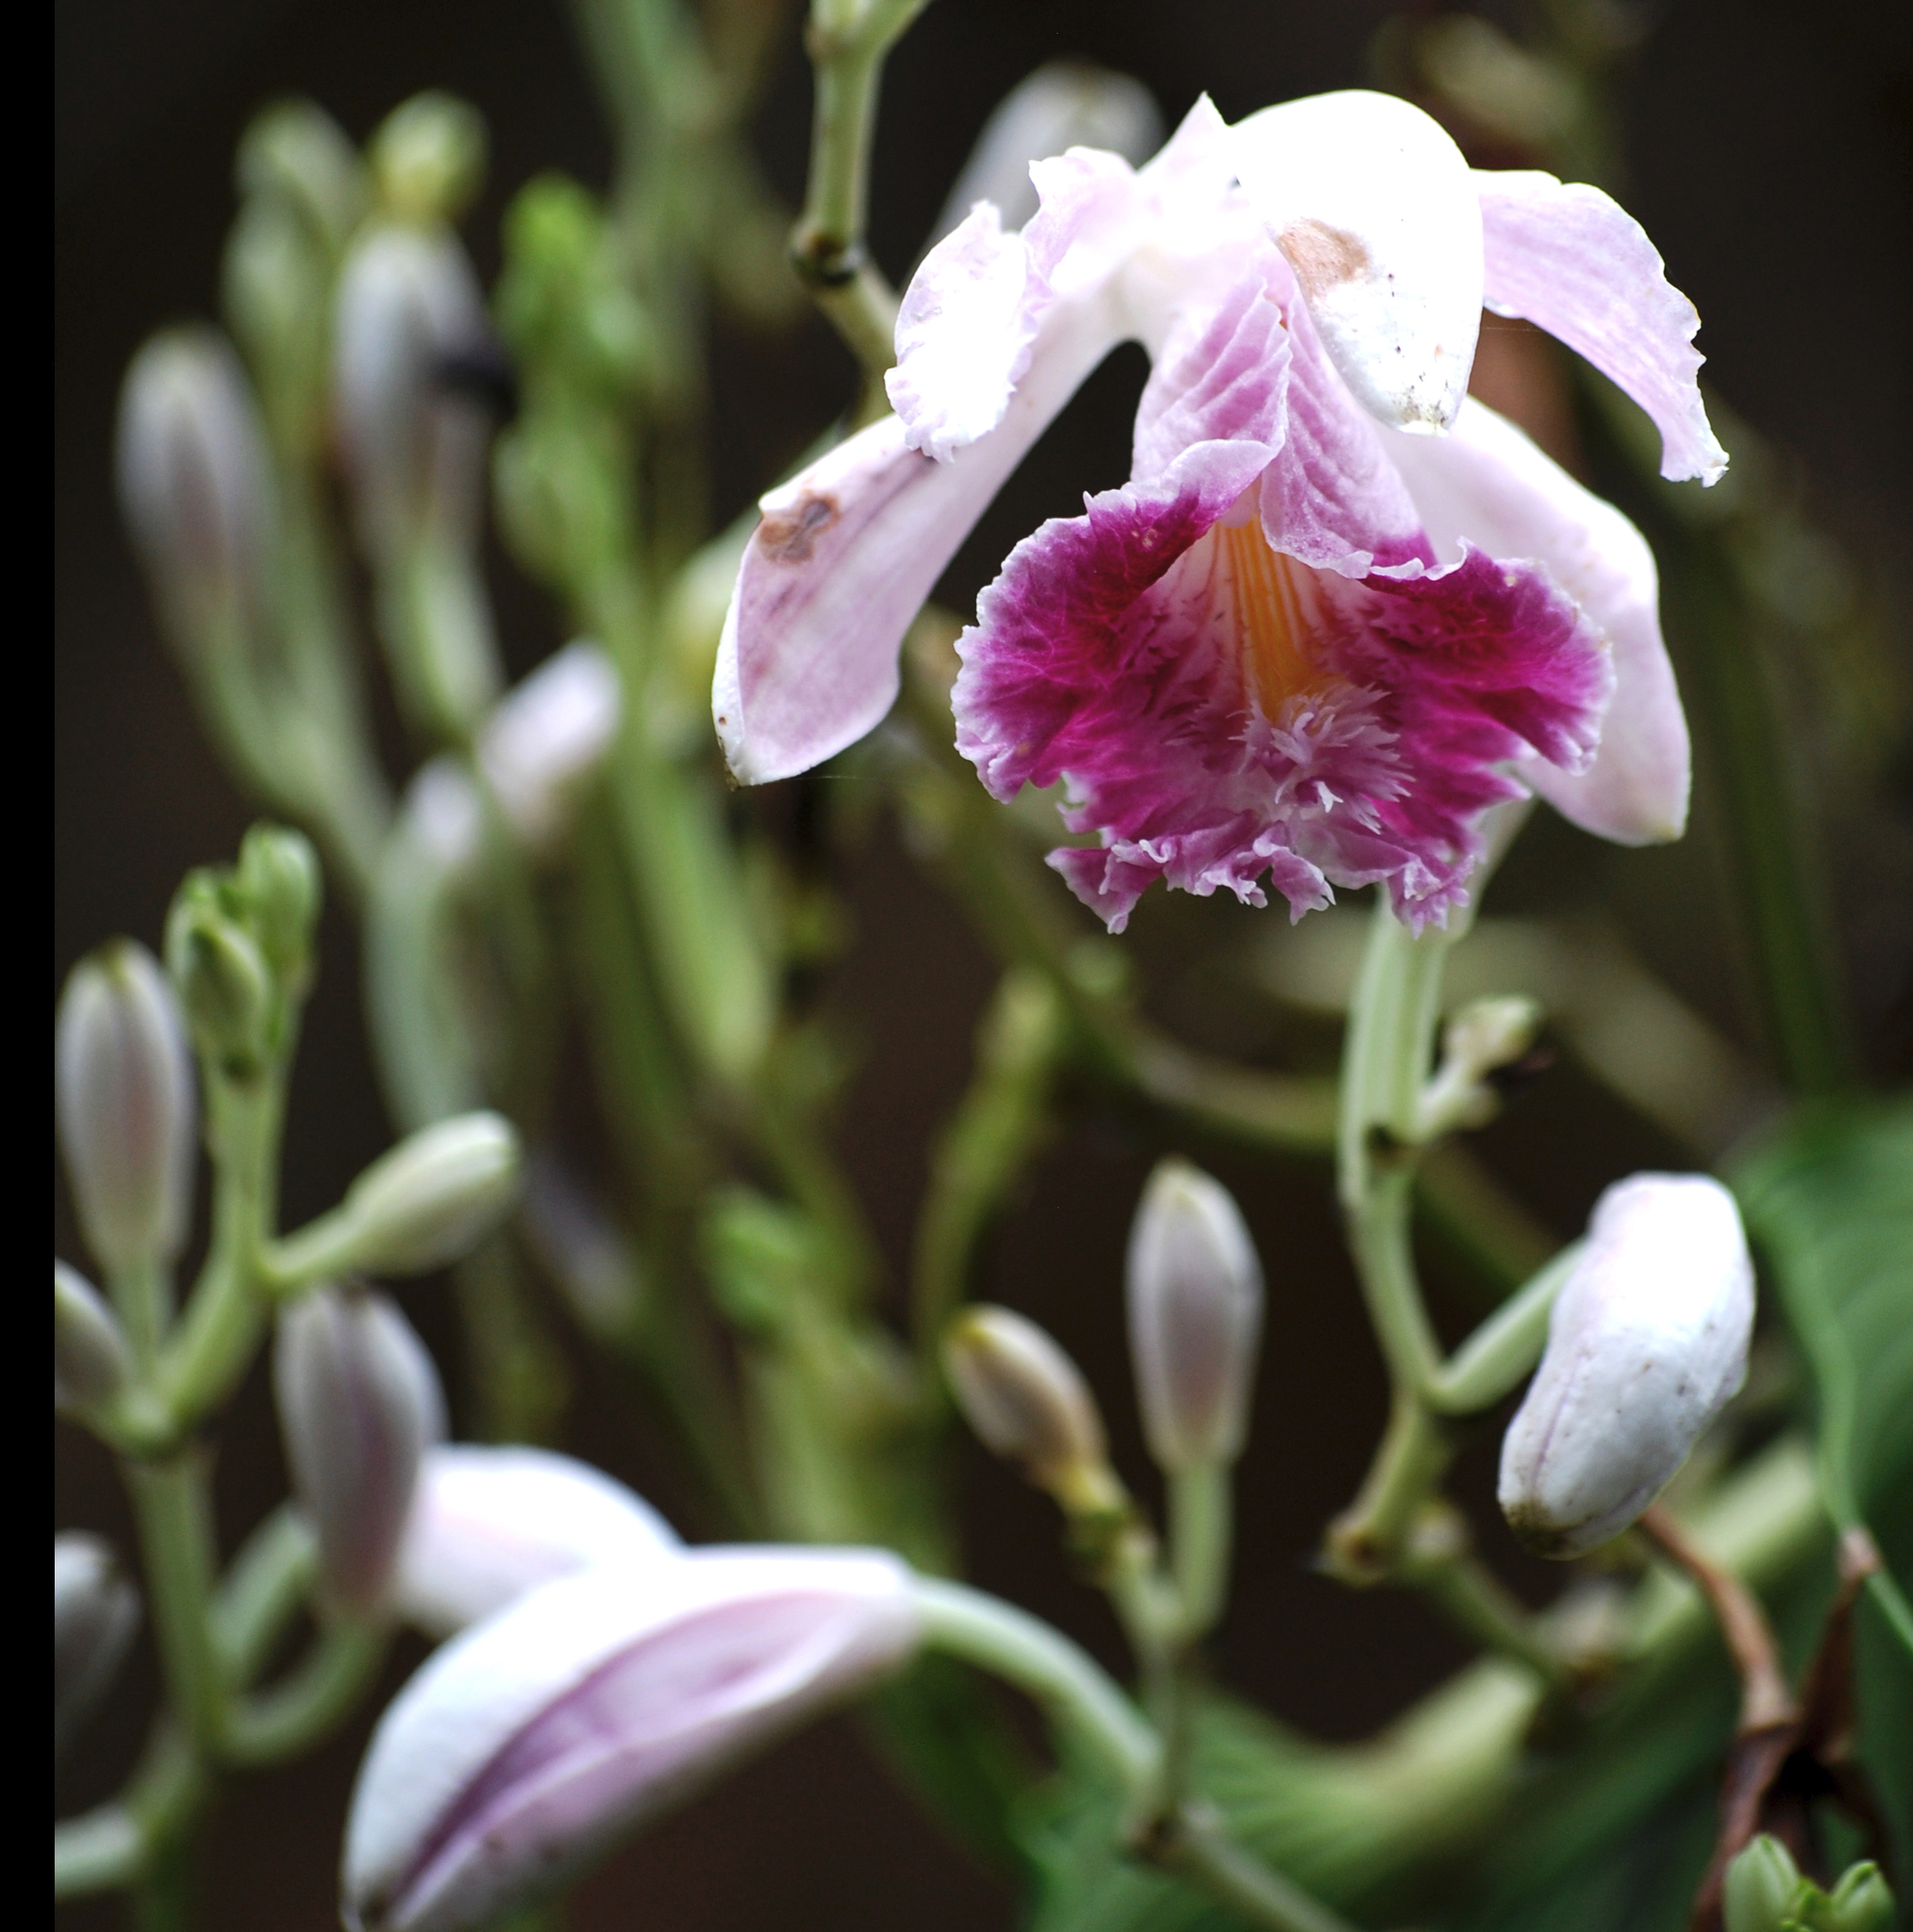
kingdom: Plantae
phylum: Tracheophyta
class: Liliopsida
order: Asparagales
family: Orchidaceae
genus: Sobralia
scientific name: Sobralia roezlii
